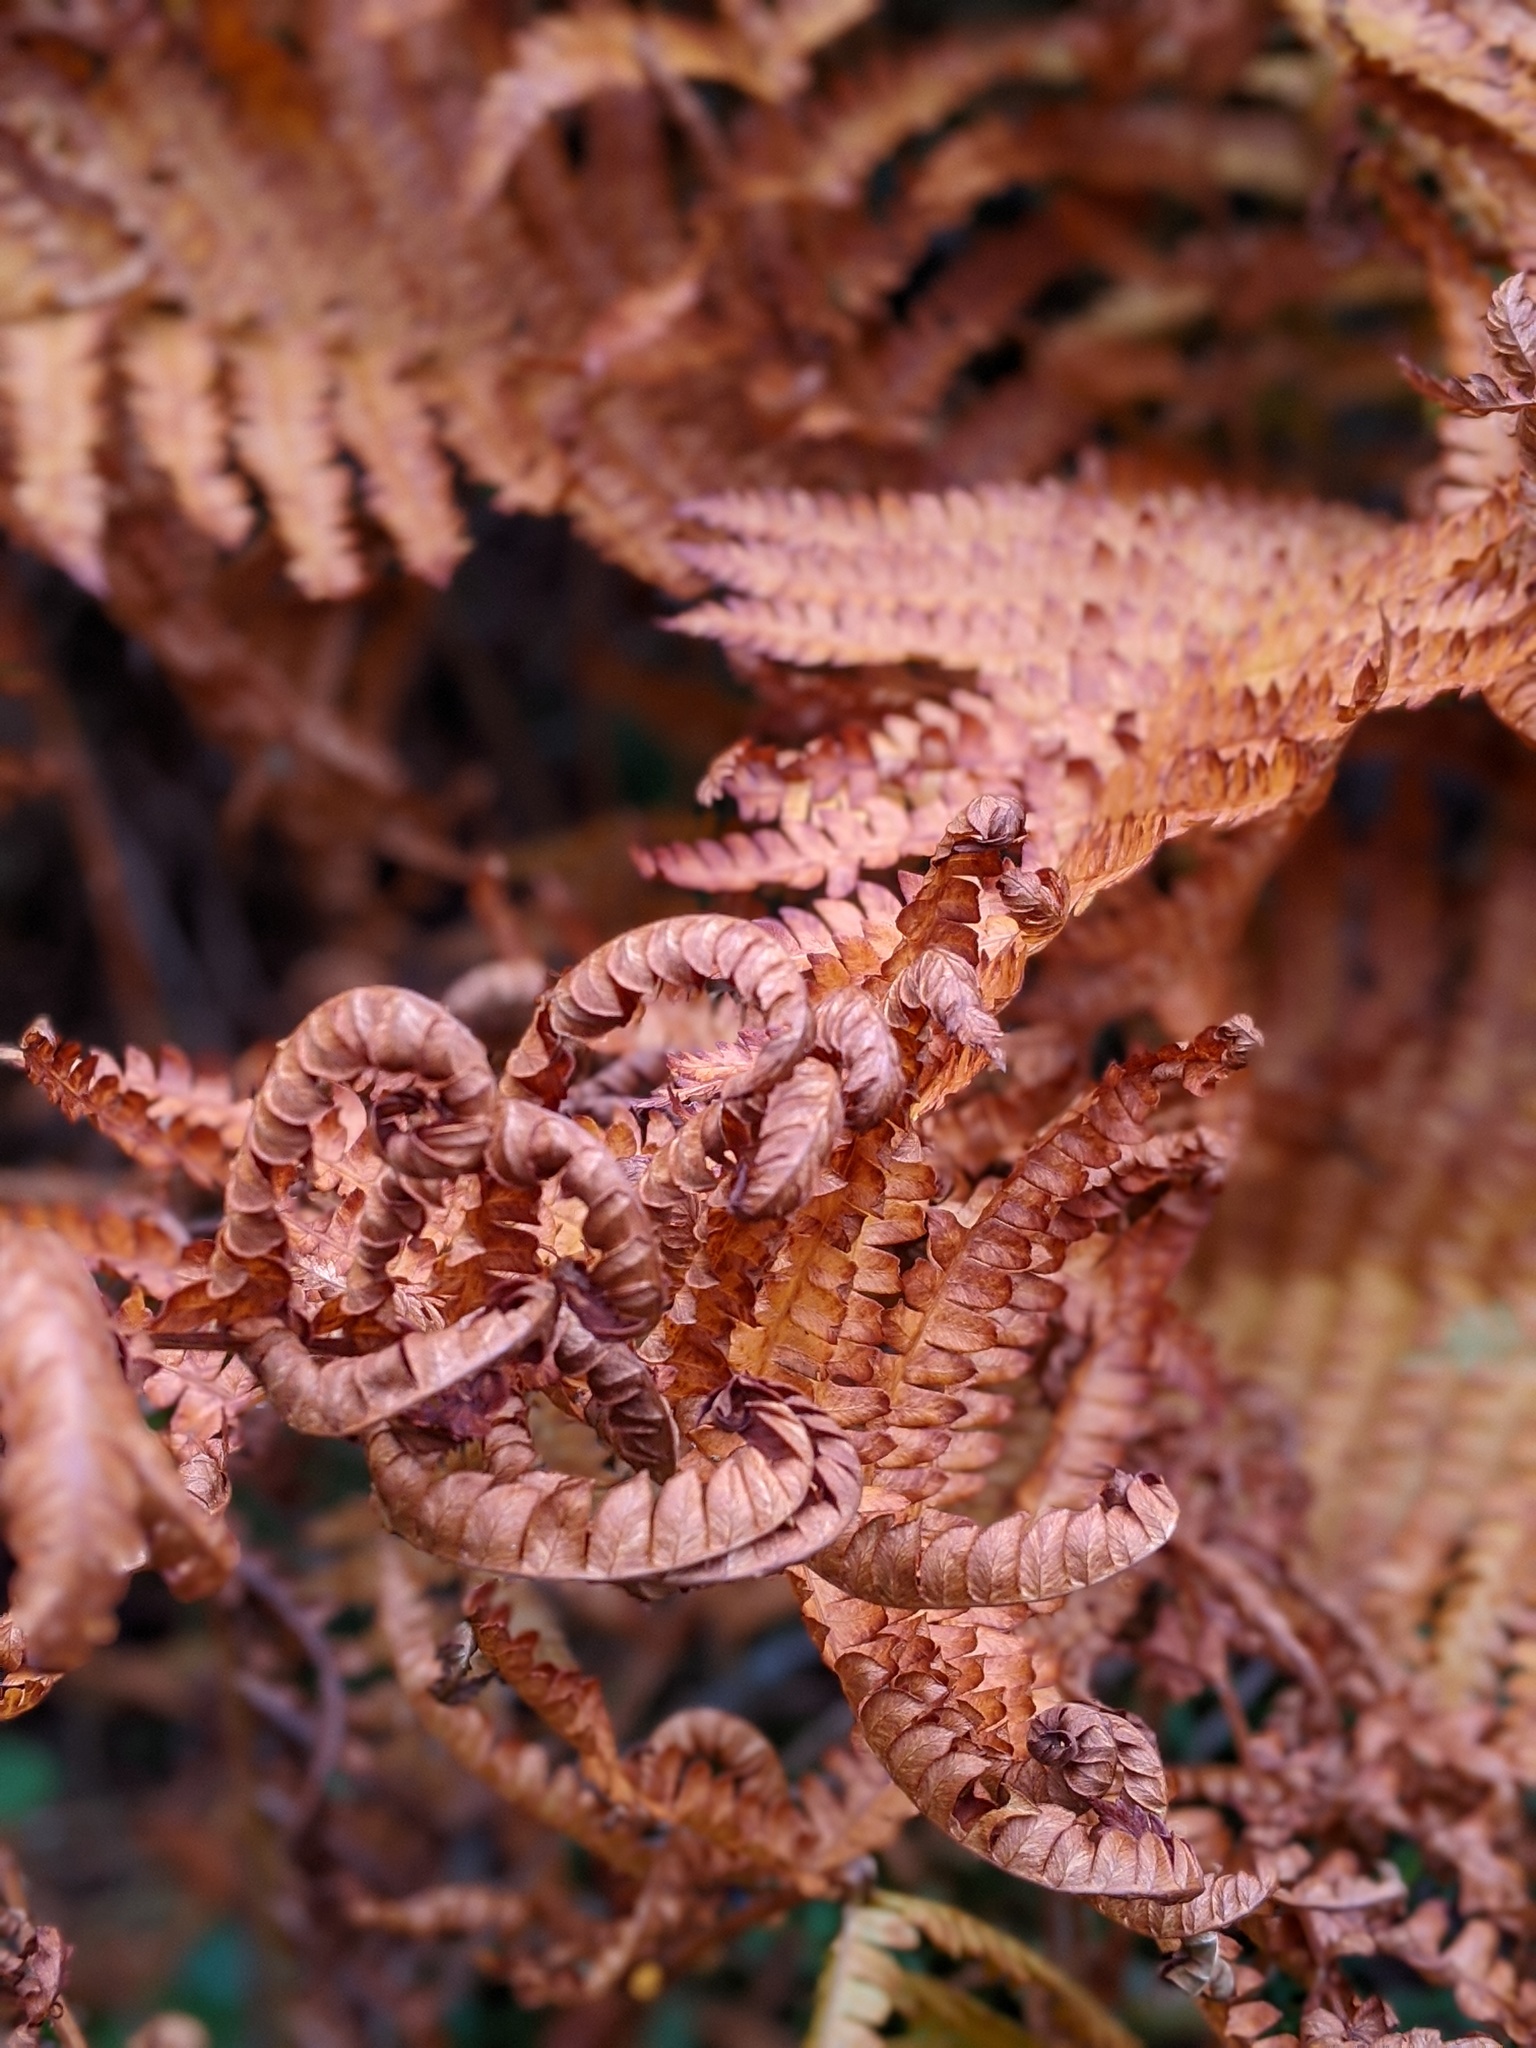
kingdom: Plantae
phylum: Tracheophyta
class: Polypodiopsida
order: Osmundales
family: Osmundaceae
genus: Osmundastrum
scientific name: Osmundastrum cinnamomeum
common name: Cinnamon fern
